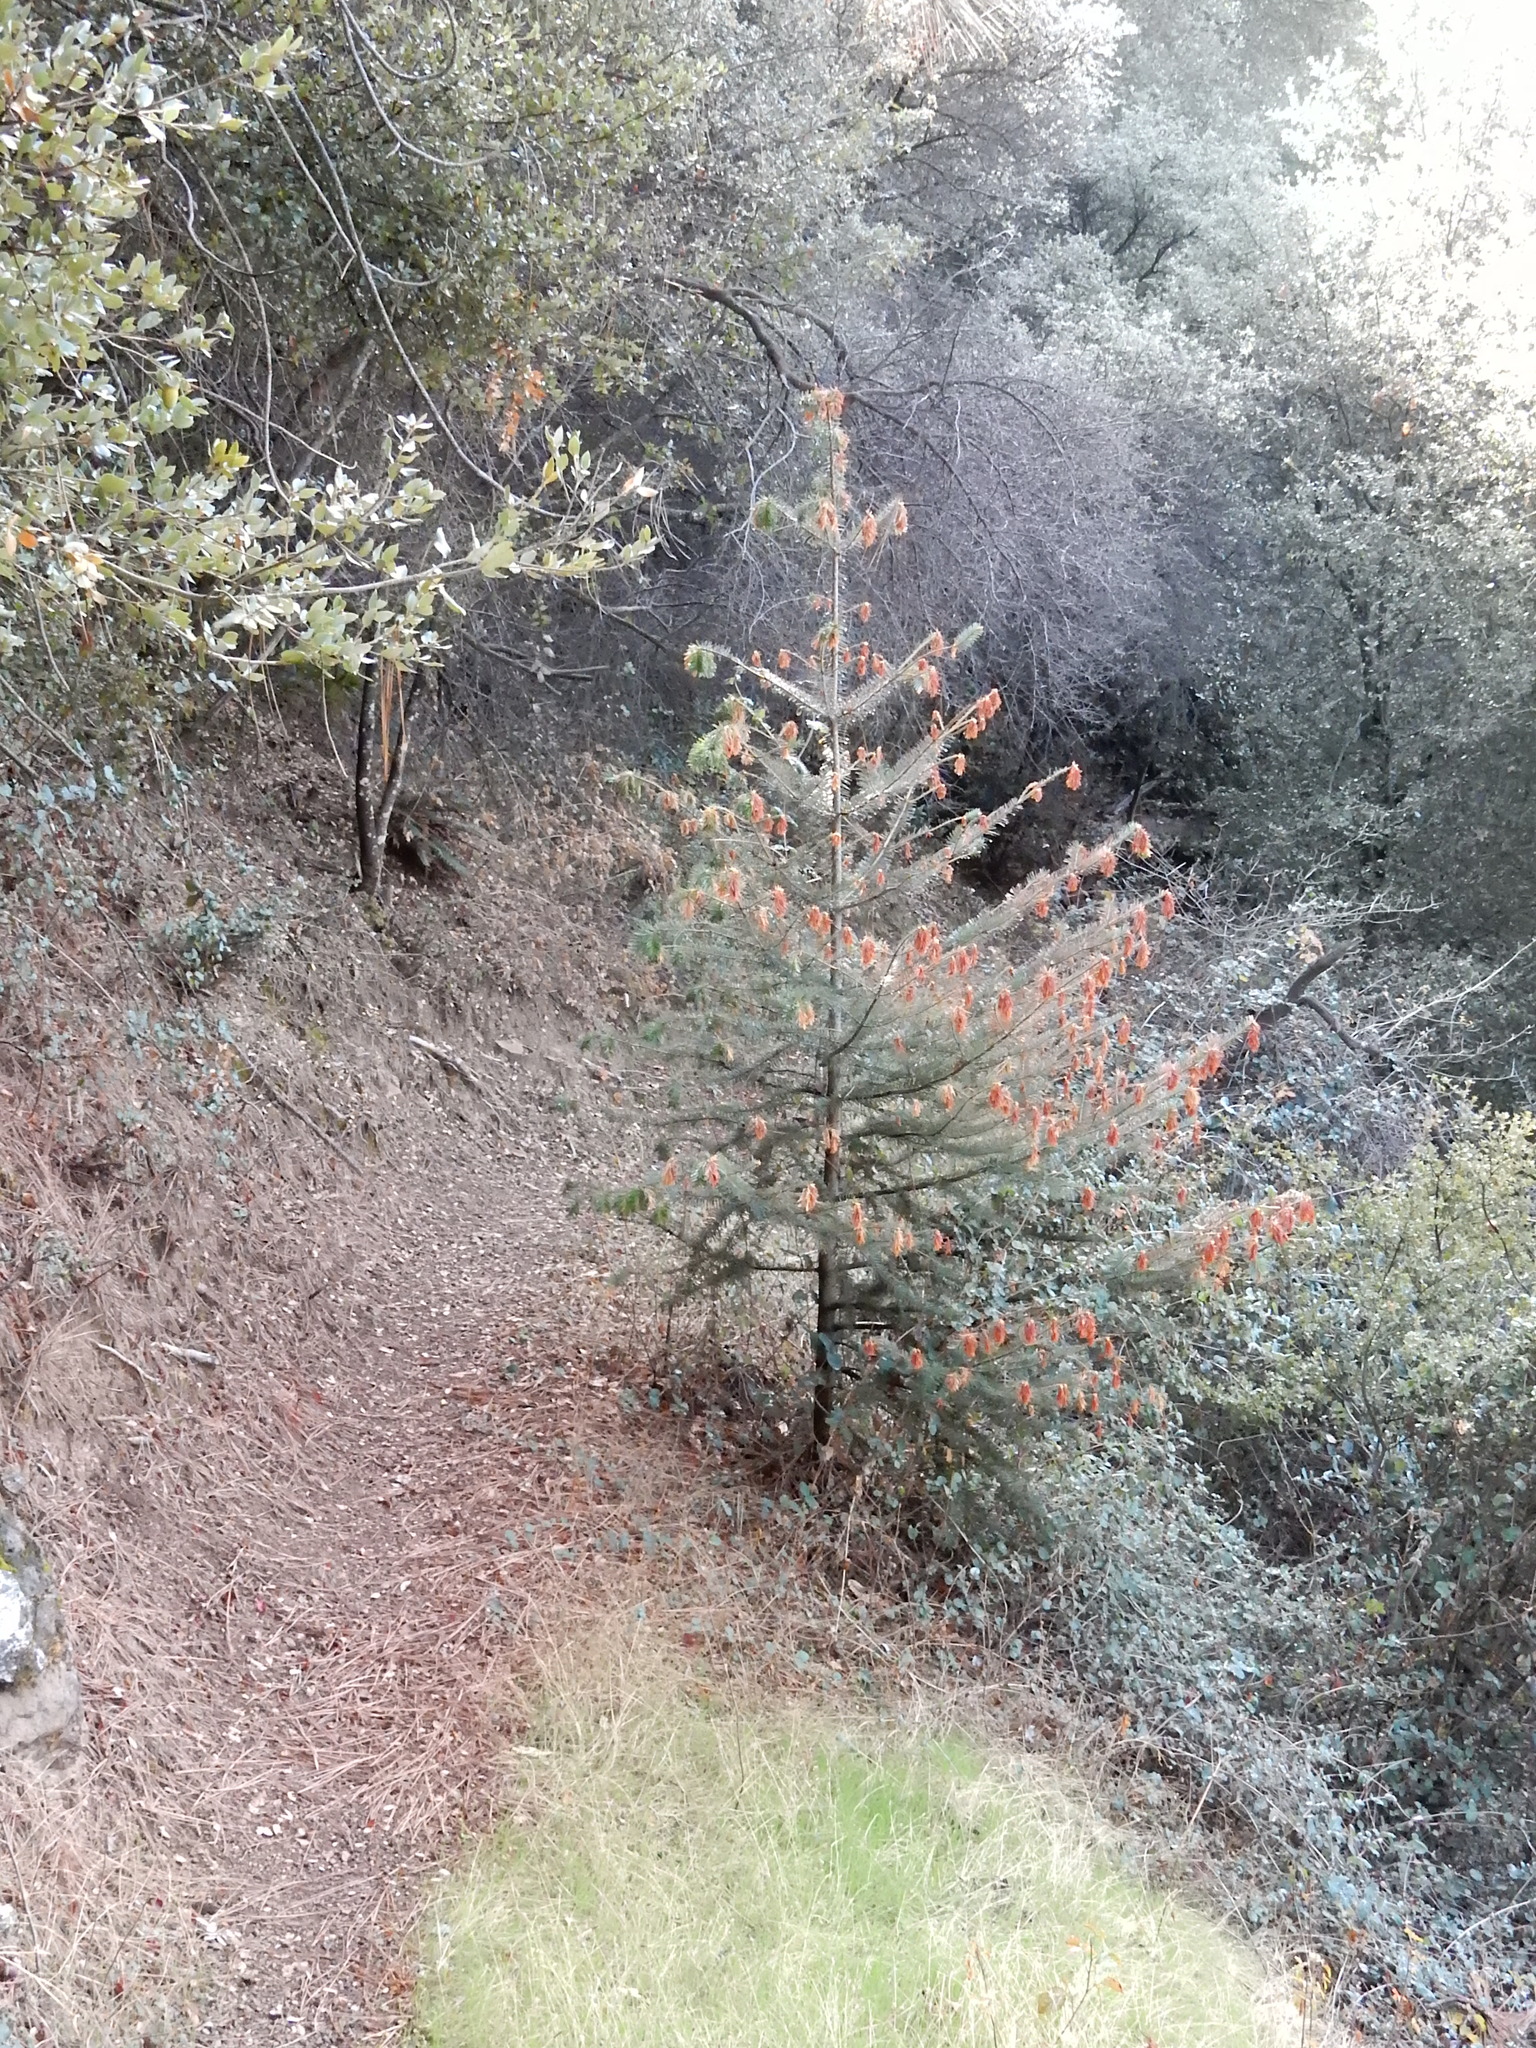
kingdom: Plantae
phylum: Tracheophyta
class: Pinopsida
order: Pinales
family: Pinaceae
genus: Abies
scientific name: Abies bracteata
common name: Bristlecone fir
